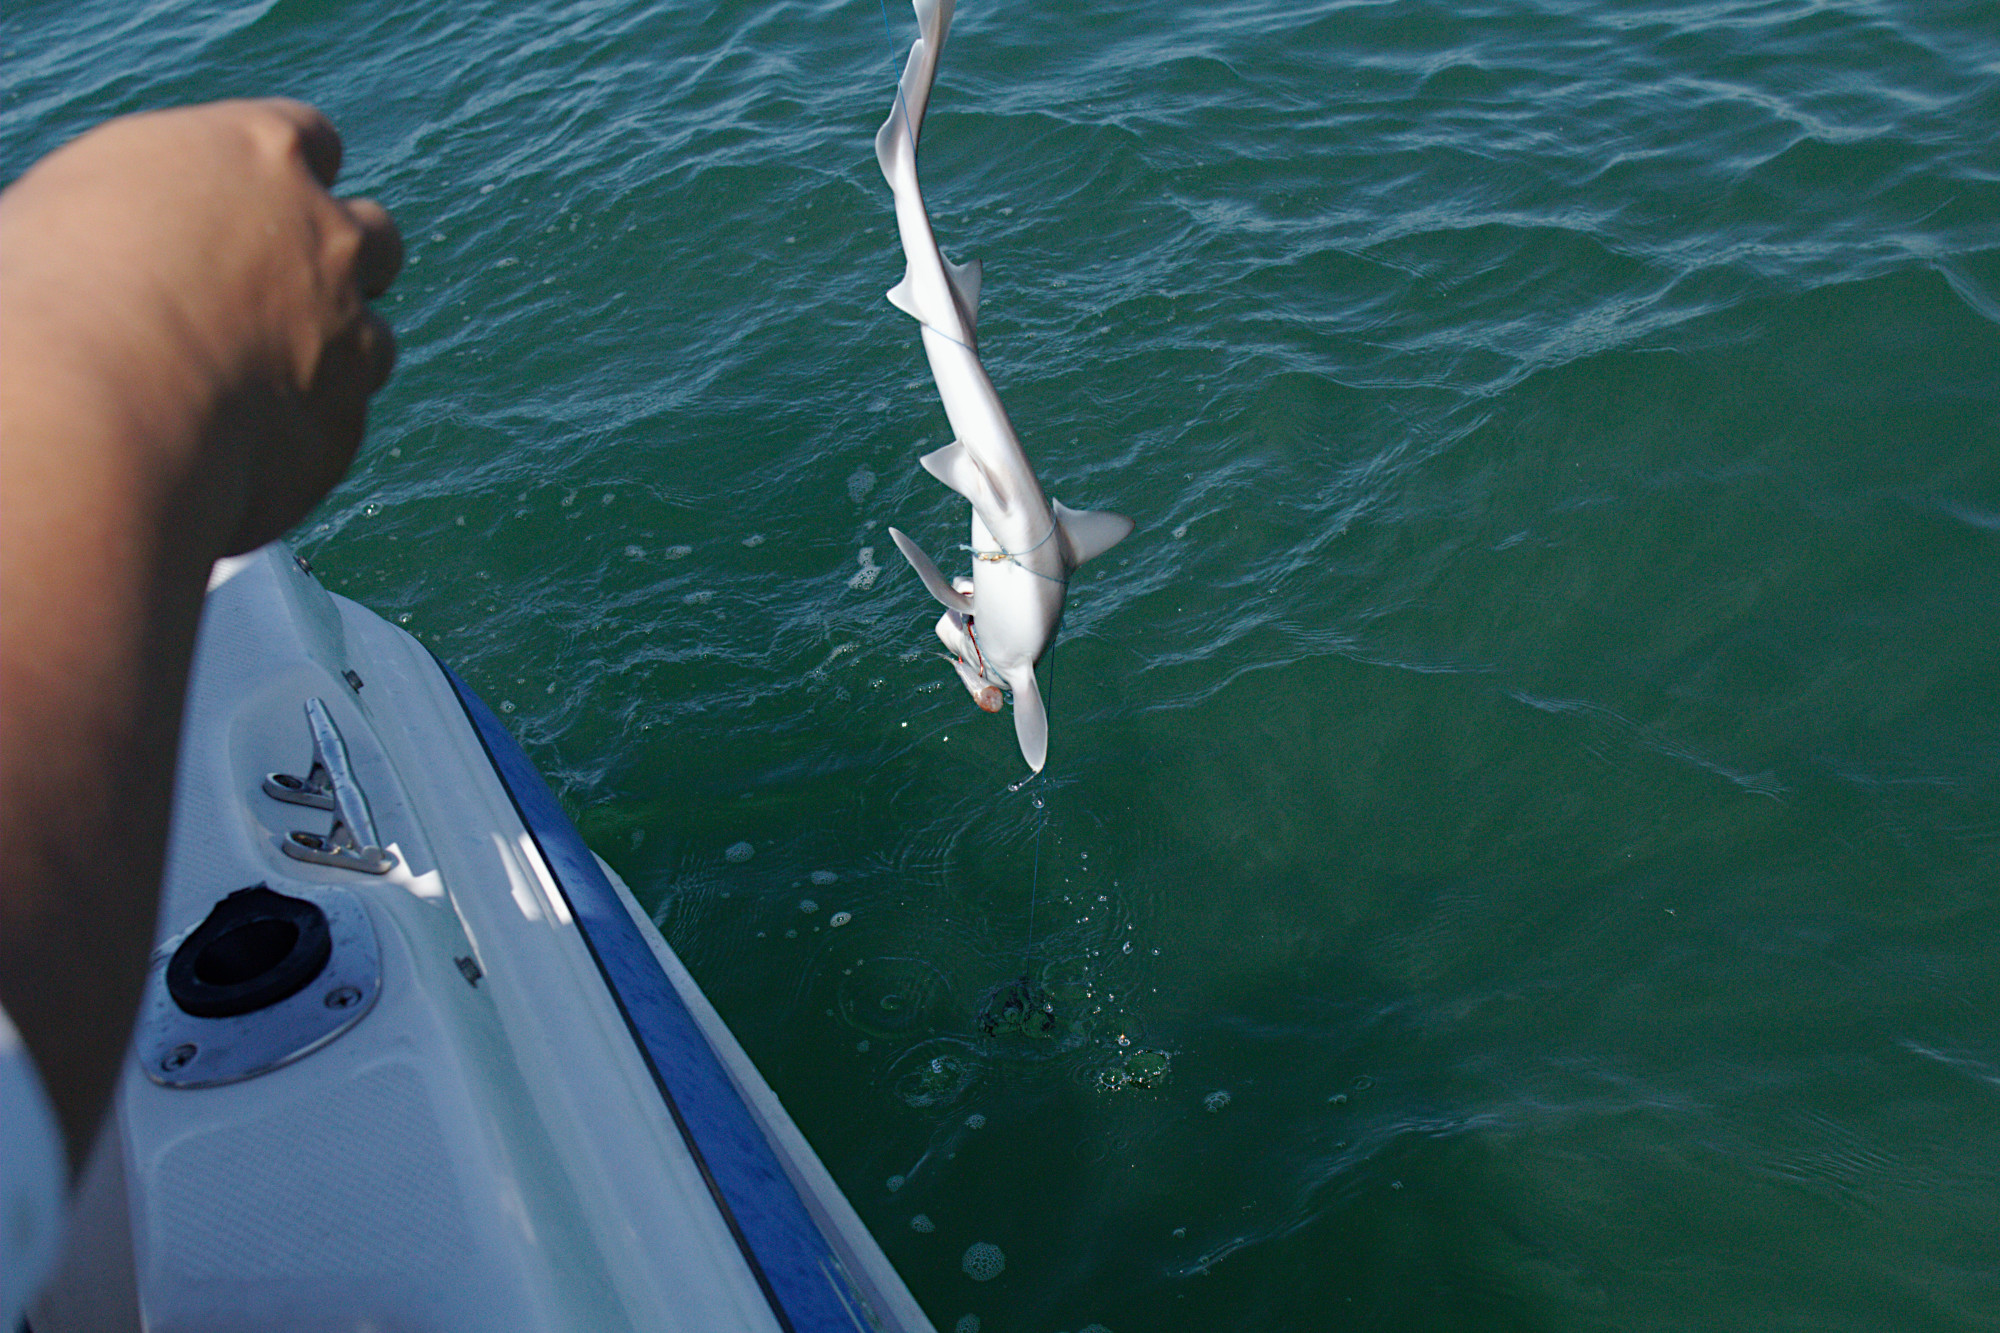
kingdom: Animalia
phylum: Chordata
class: Elasmobranchii
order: Carcharhiniformes
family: Triakidae
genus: Mustelus
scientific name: Mustelus antarcticus
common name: Gummy shark
